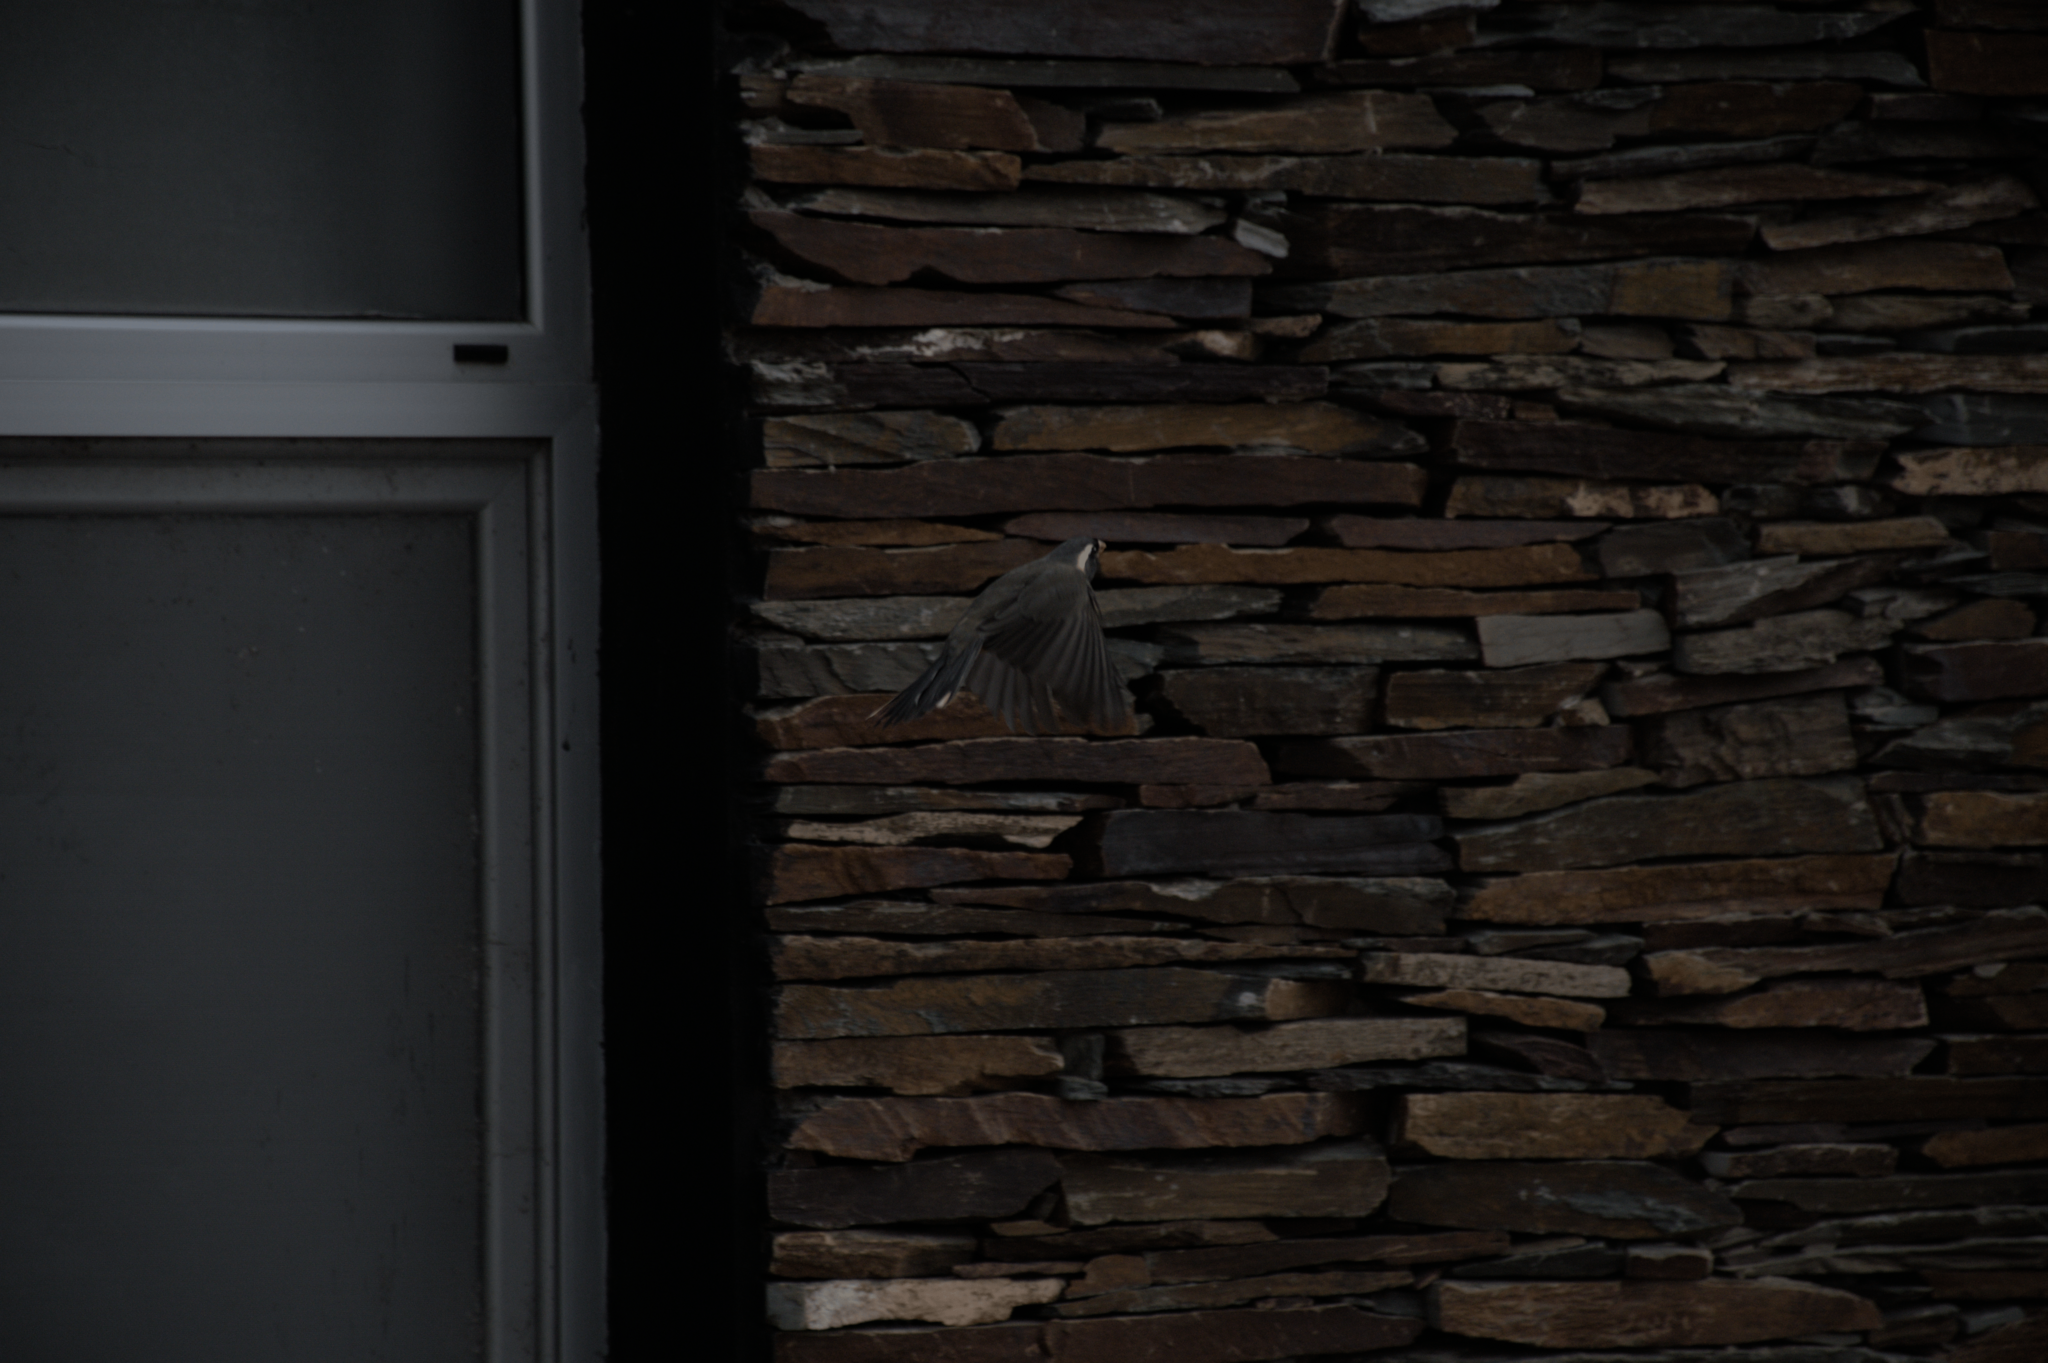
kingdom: Animalia
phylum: Chordata
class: Aves
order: Passeriformes
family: Thraupidae
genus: Saltator
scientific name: Saltator aurantiirostris
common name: Golden-billed saltator
